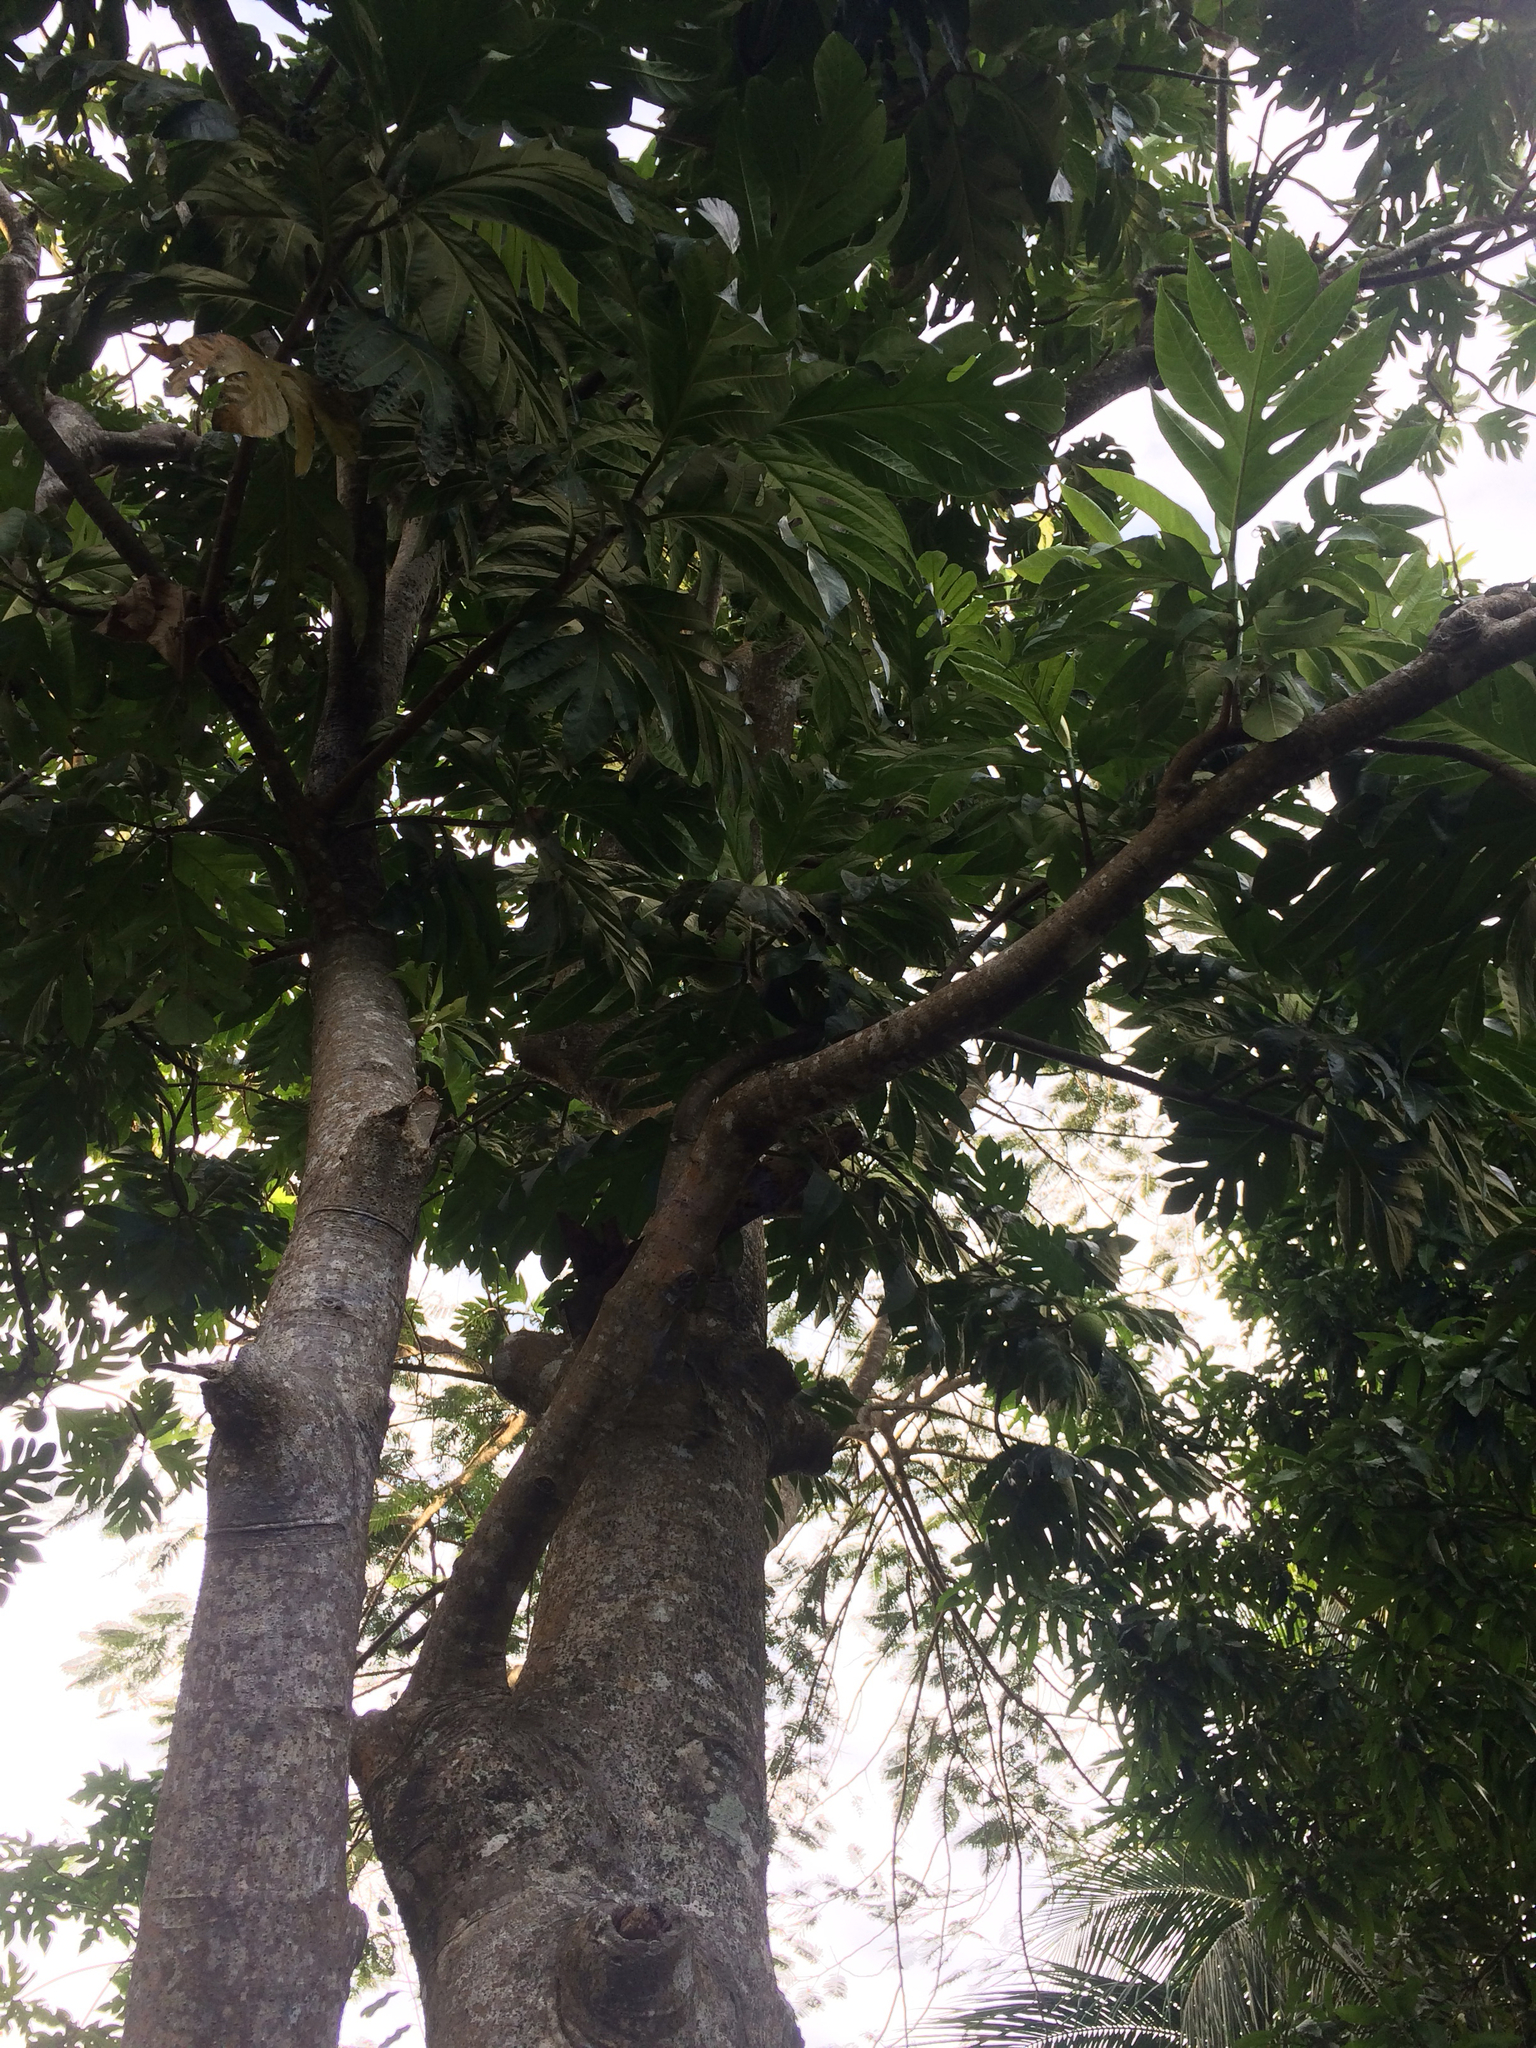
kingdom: Plantae
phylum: Tracheophyta
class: Magnoliopsida
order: Rosales
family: Moraceae
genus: Artocarpus
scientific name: Artocarpus altilis
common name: Breadfruit
